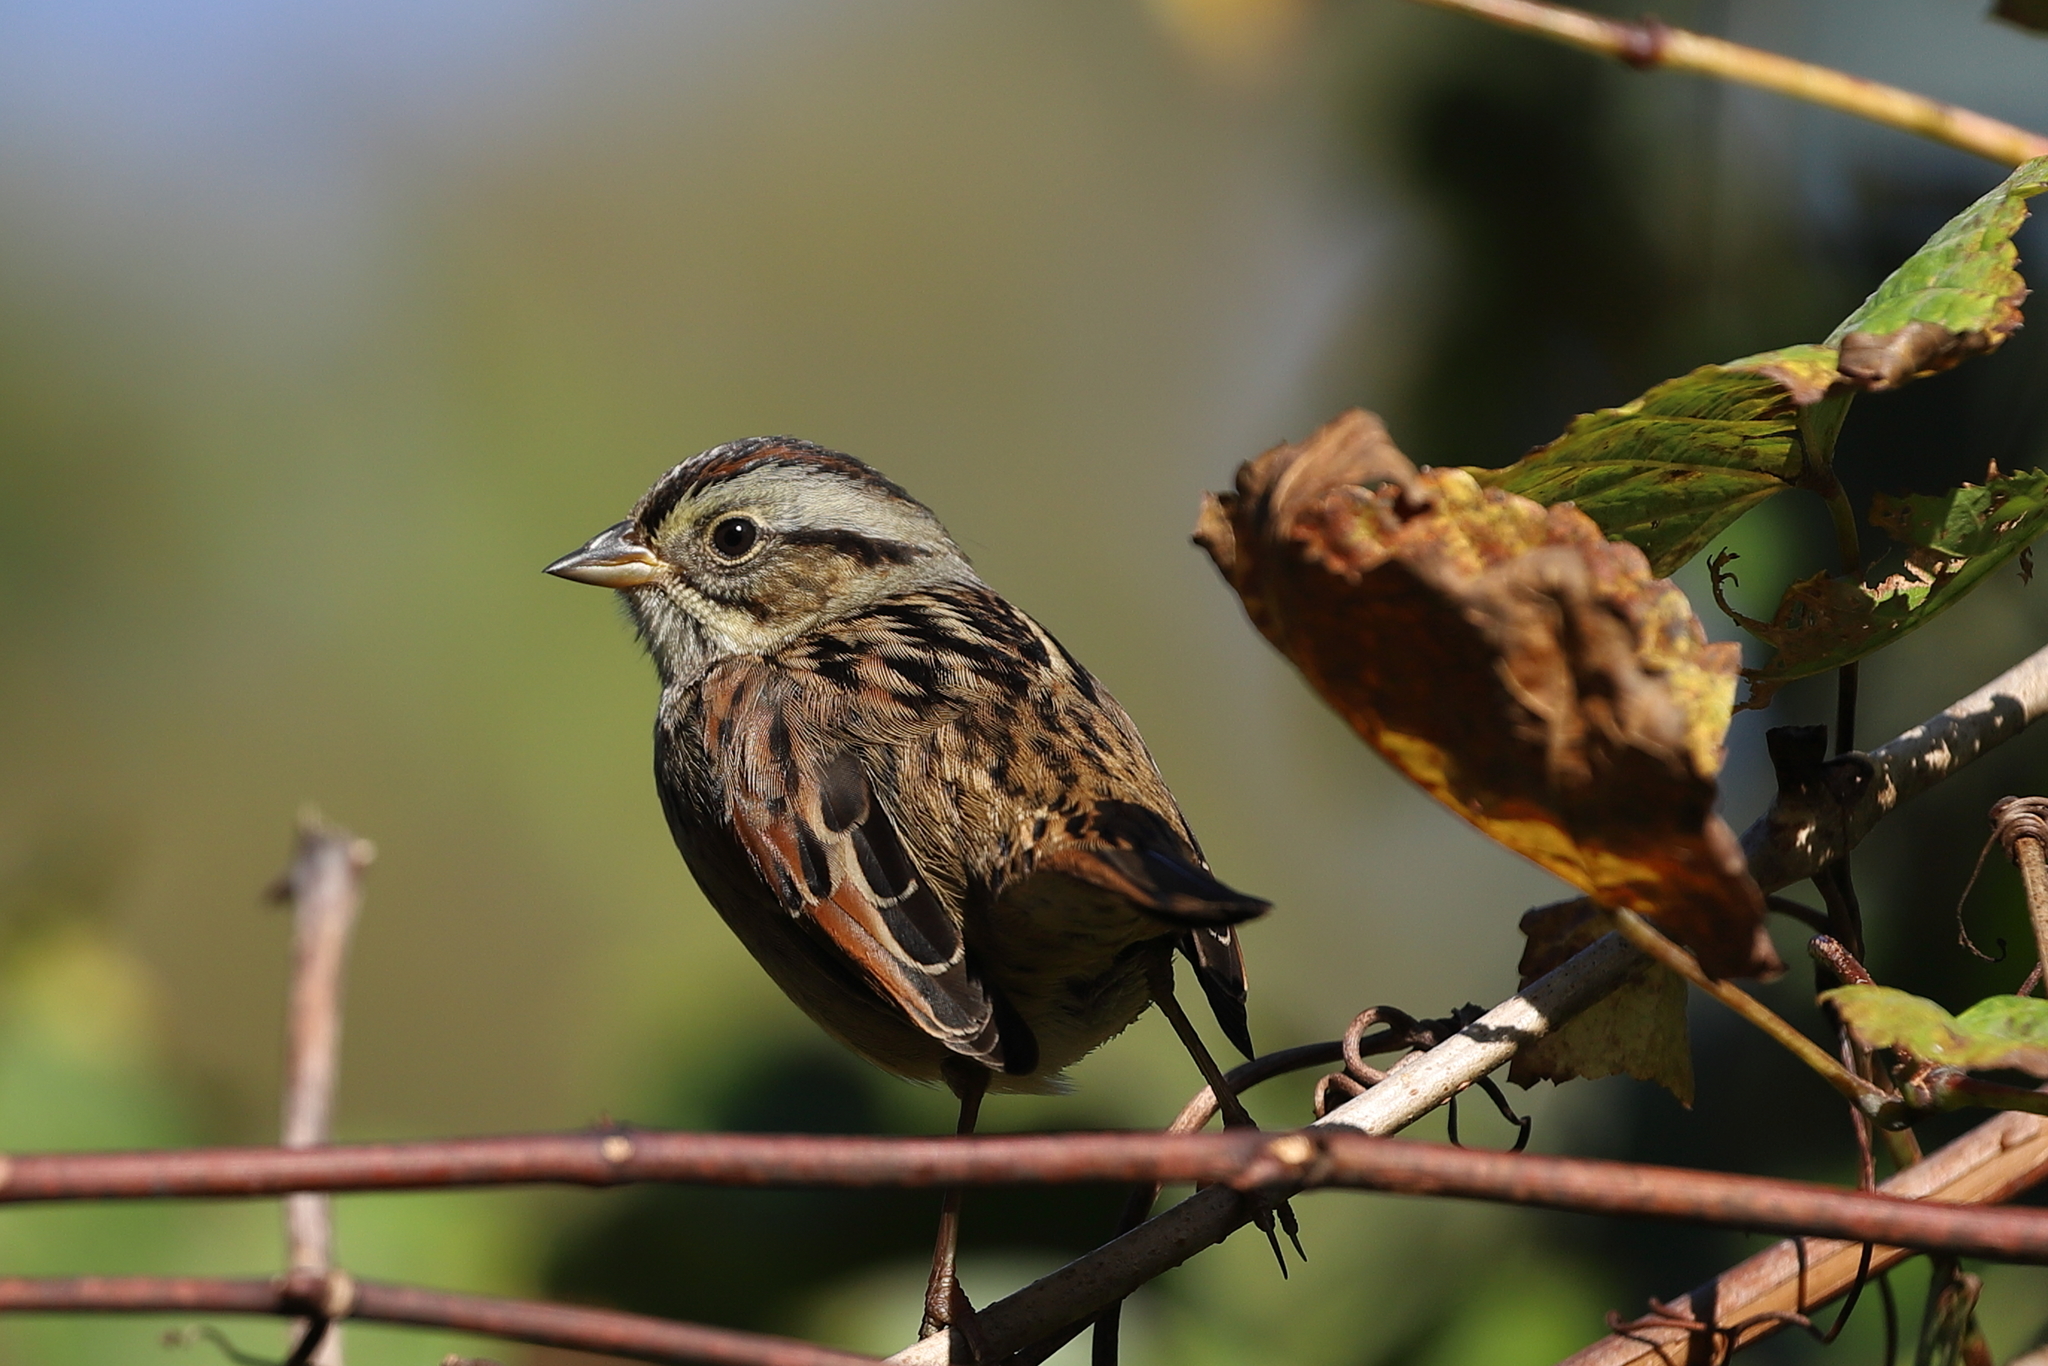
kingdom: Animalia
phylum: Chordata
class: Aves
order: Passeriformes
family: Passerellidae
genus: Melospiza
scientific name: Melospiza georgiana
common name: Swamp sparrow
